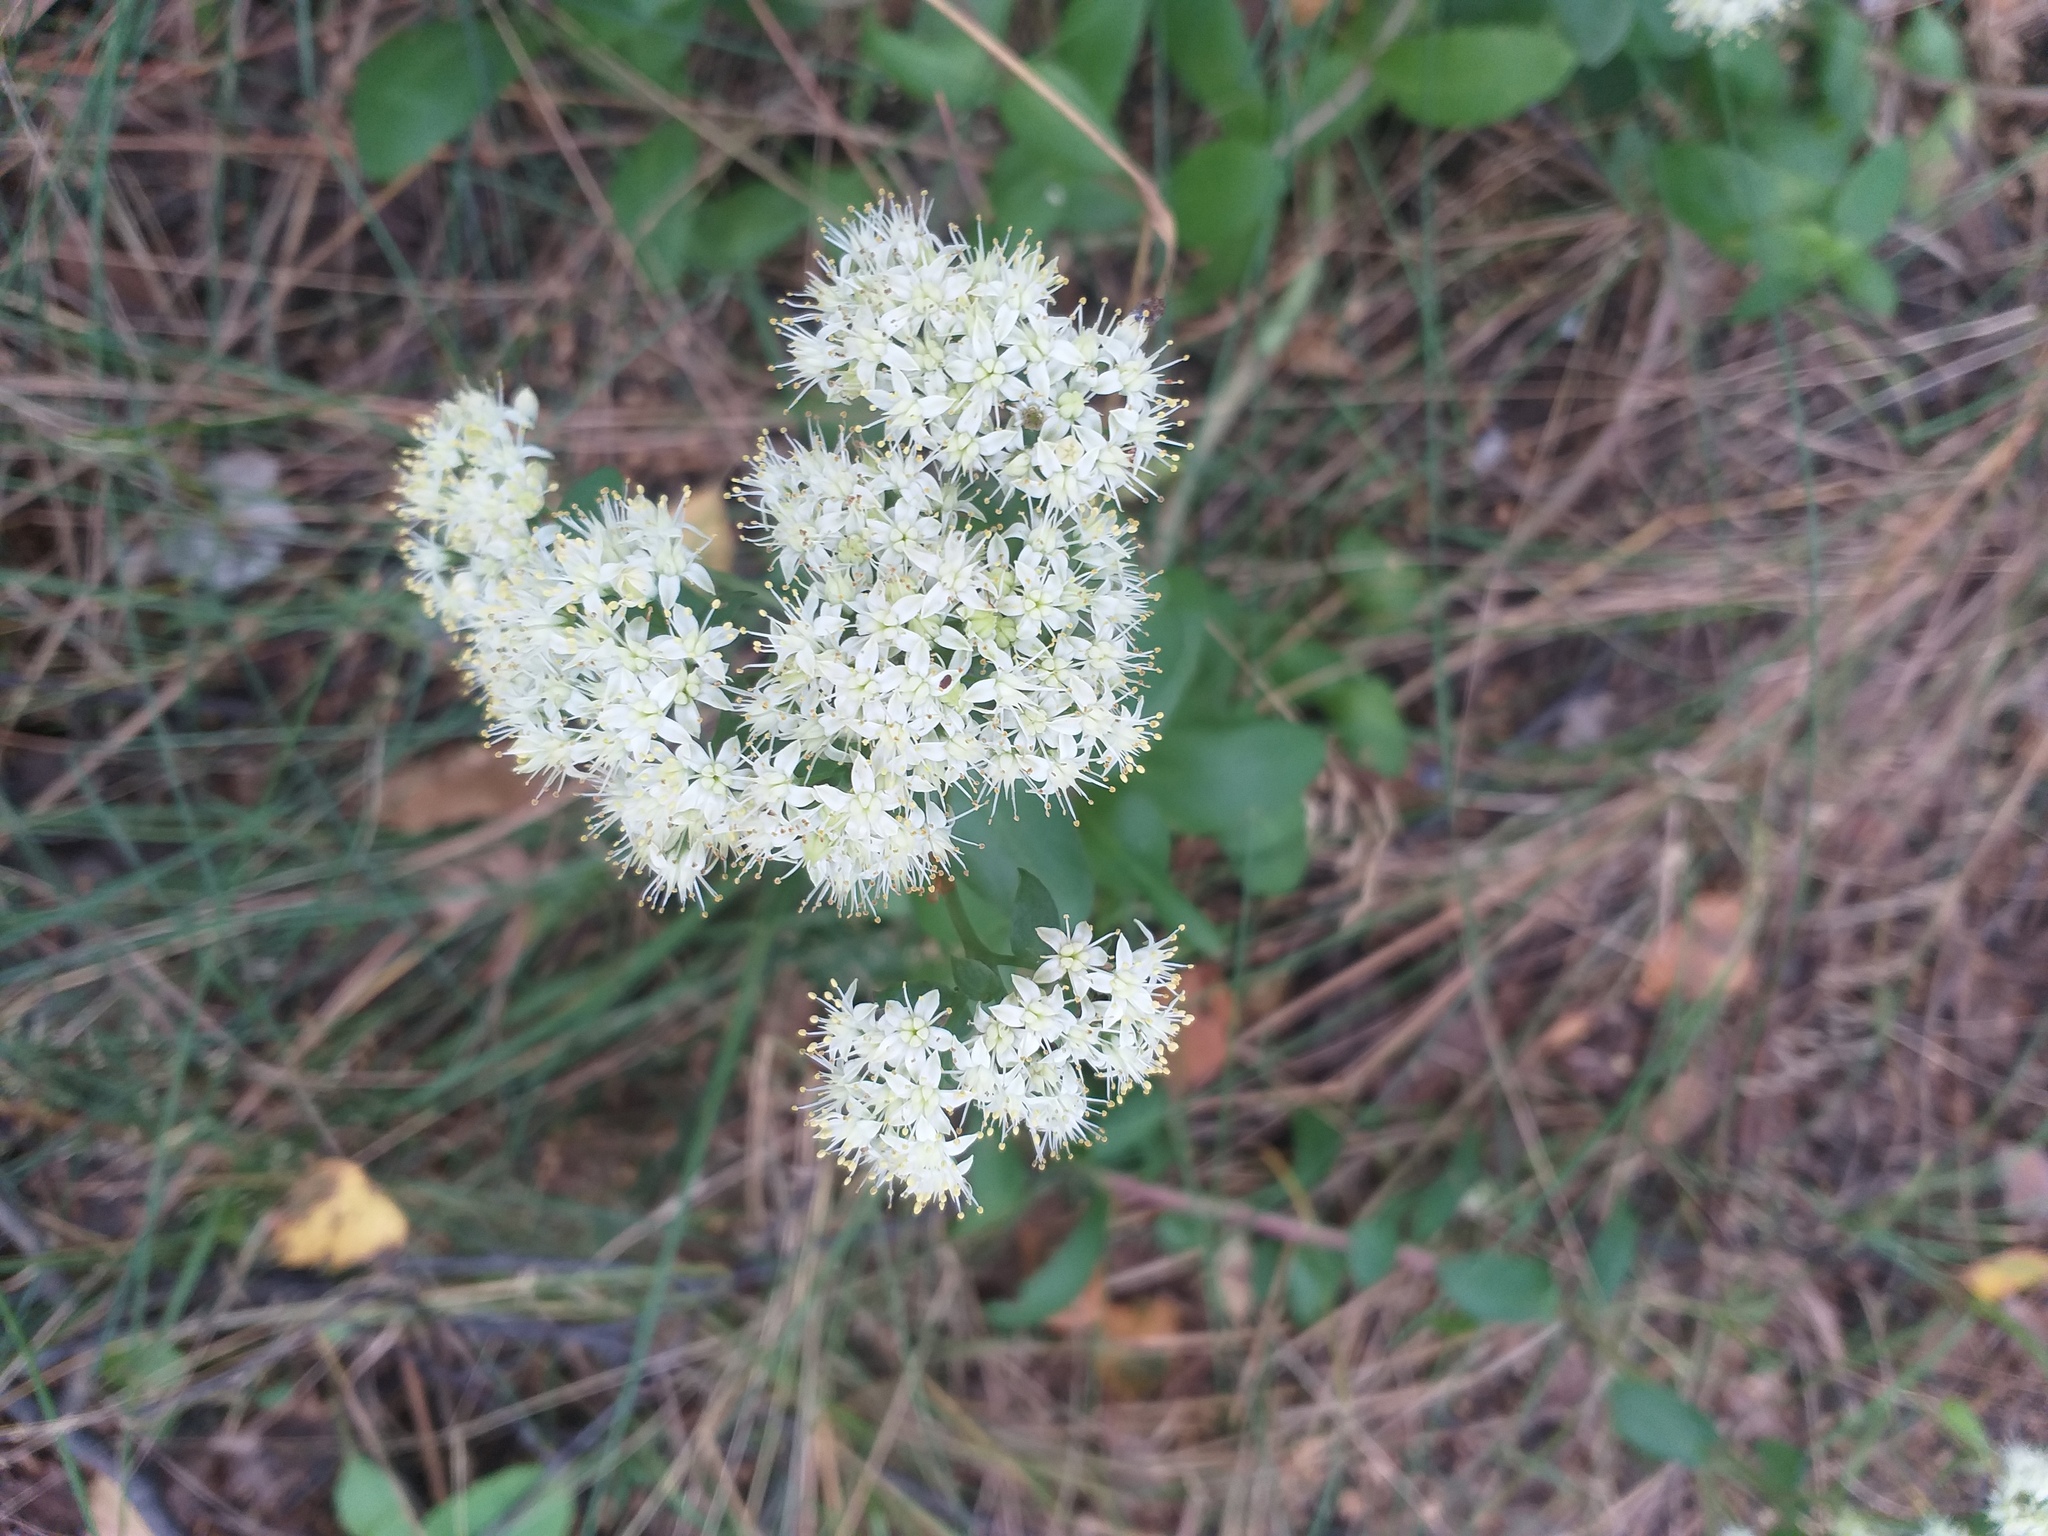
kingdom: Plantae
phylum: Tracheophyta
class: Magnoliopsida
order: Saxifragales
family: Crassulaceae
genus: Hylotelephium
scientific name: Hylotelephium maximum
